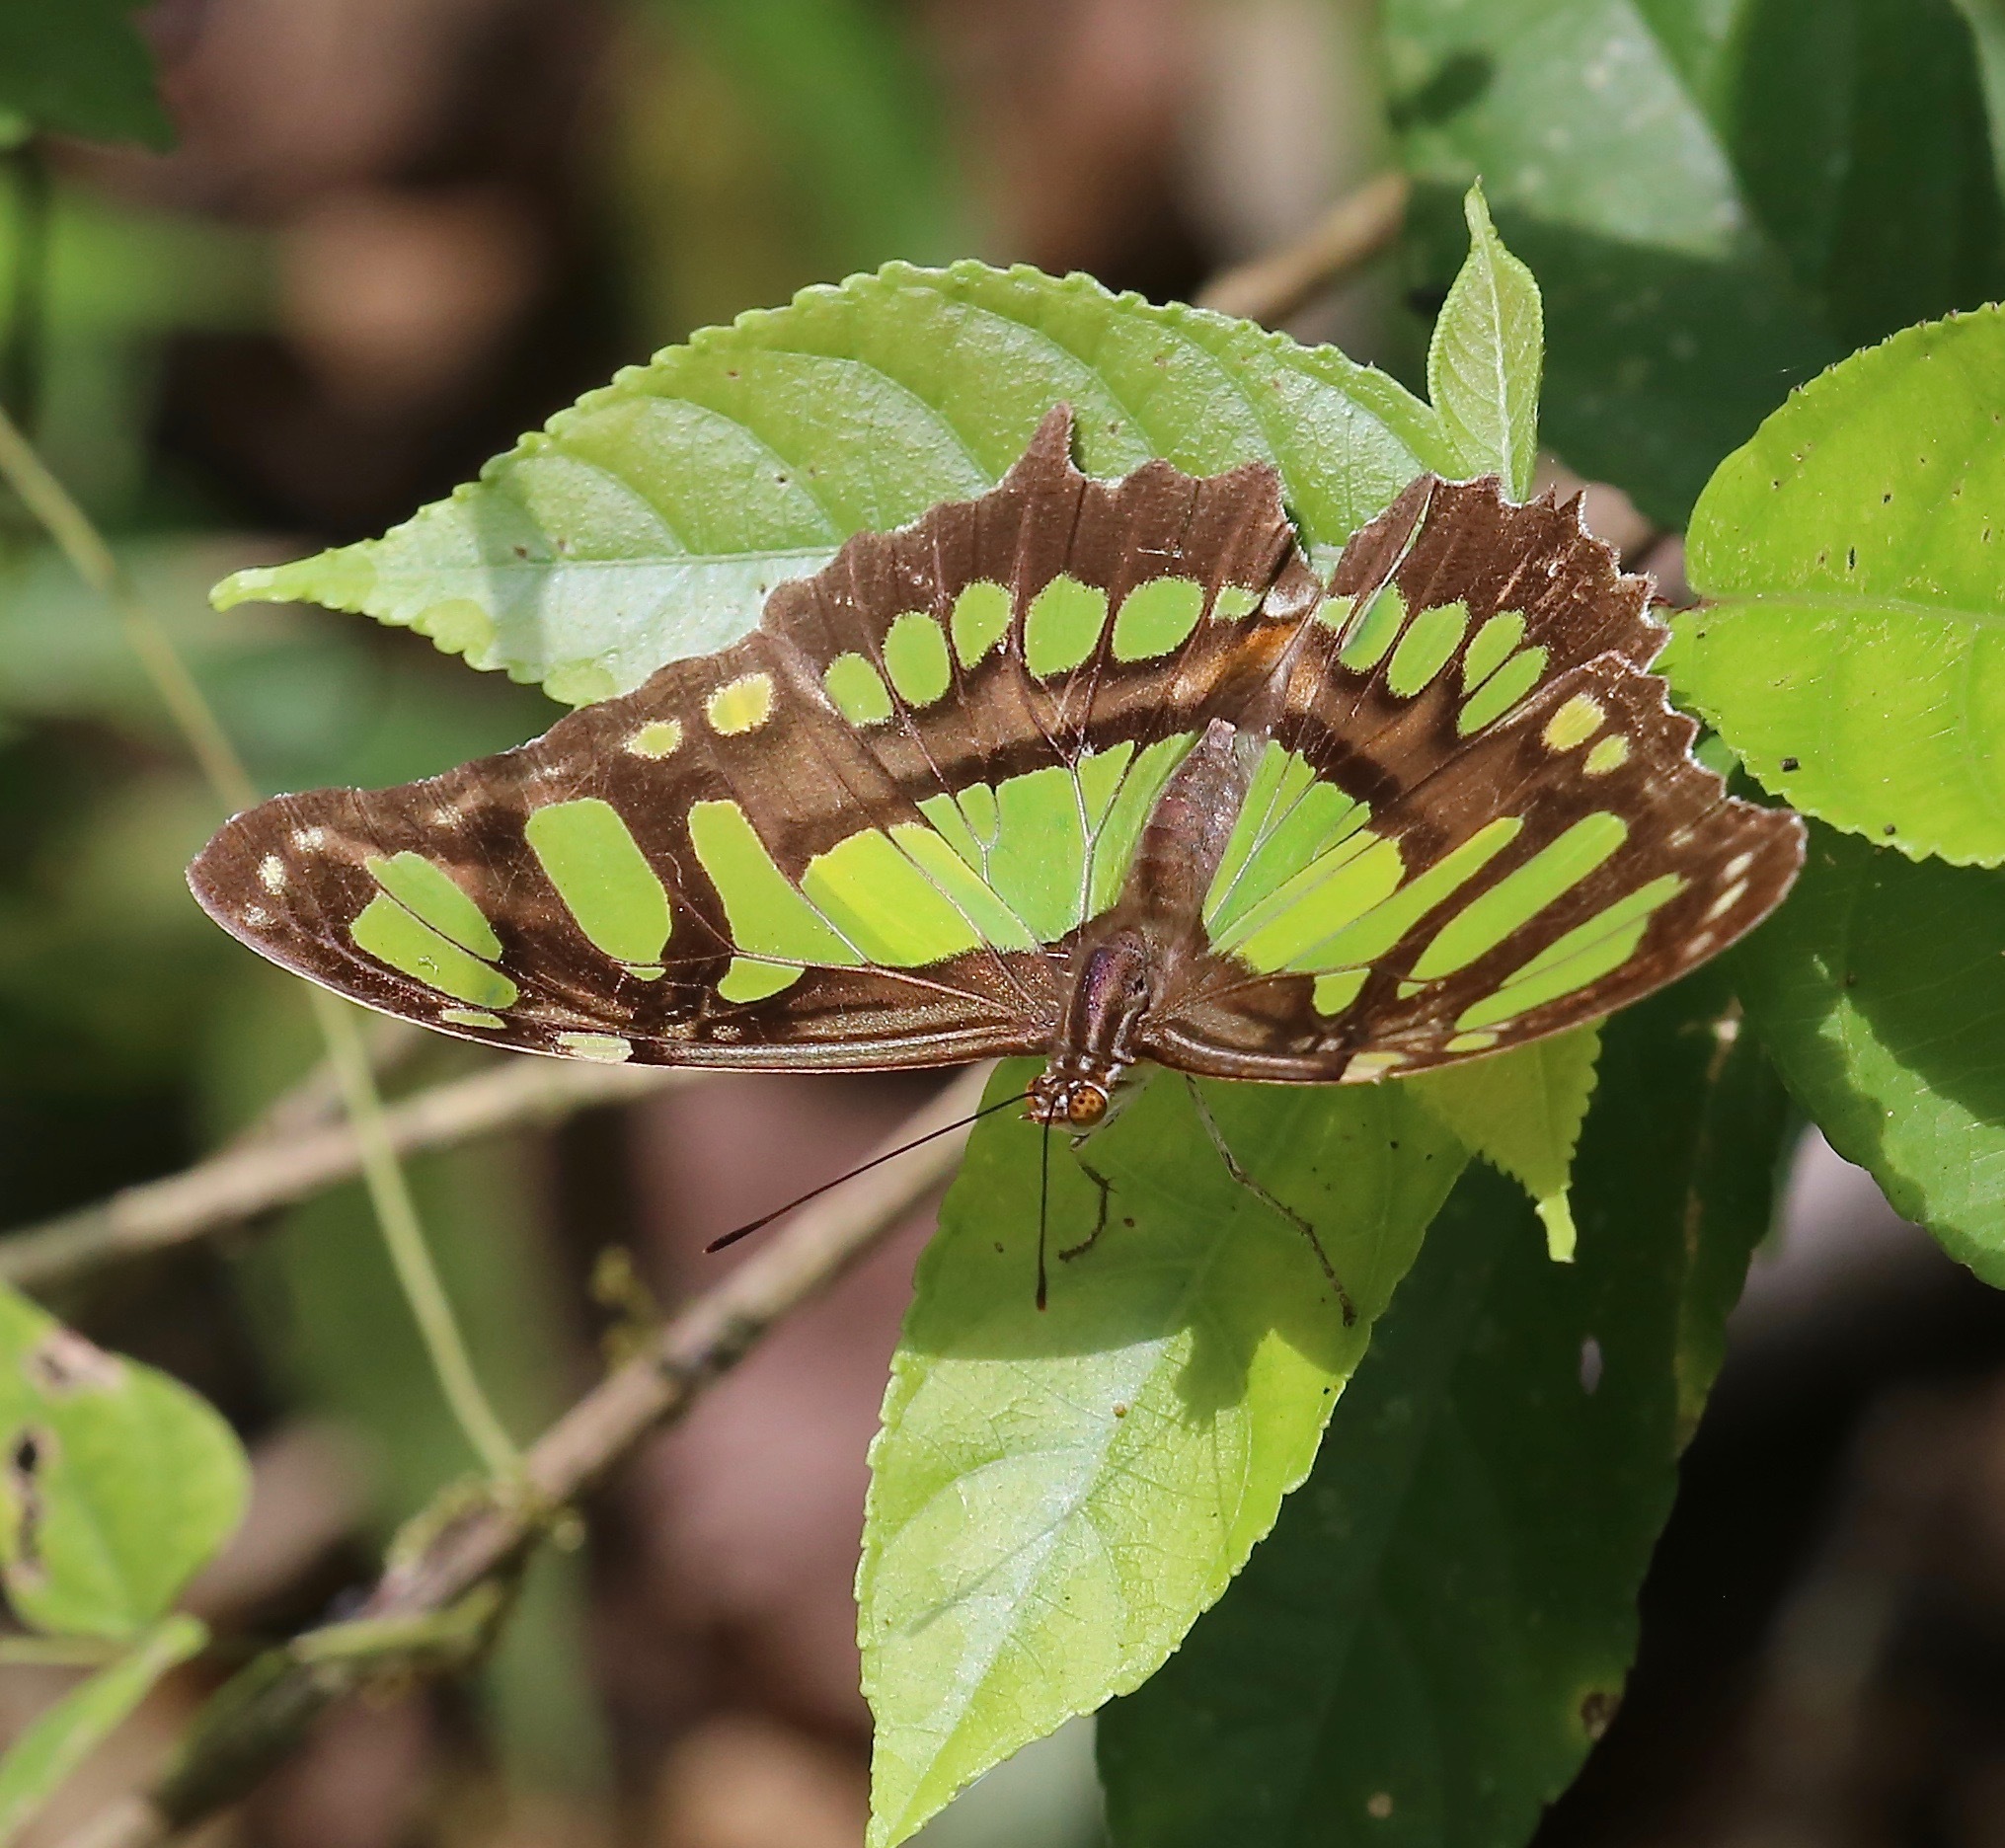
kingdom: Animalia
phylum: Arthropoda
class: Insecta
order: Lepidoptera
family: Nymphalidae
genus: Siproeta
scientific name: Siproeta stelenes
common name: Malachite
